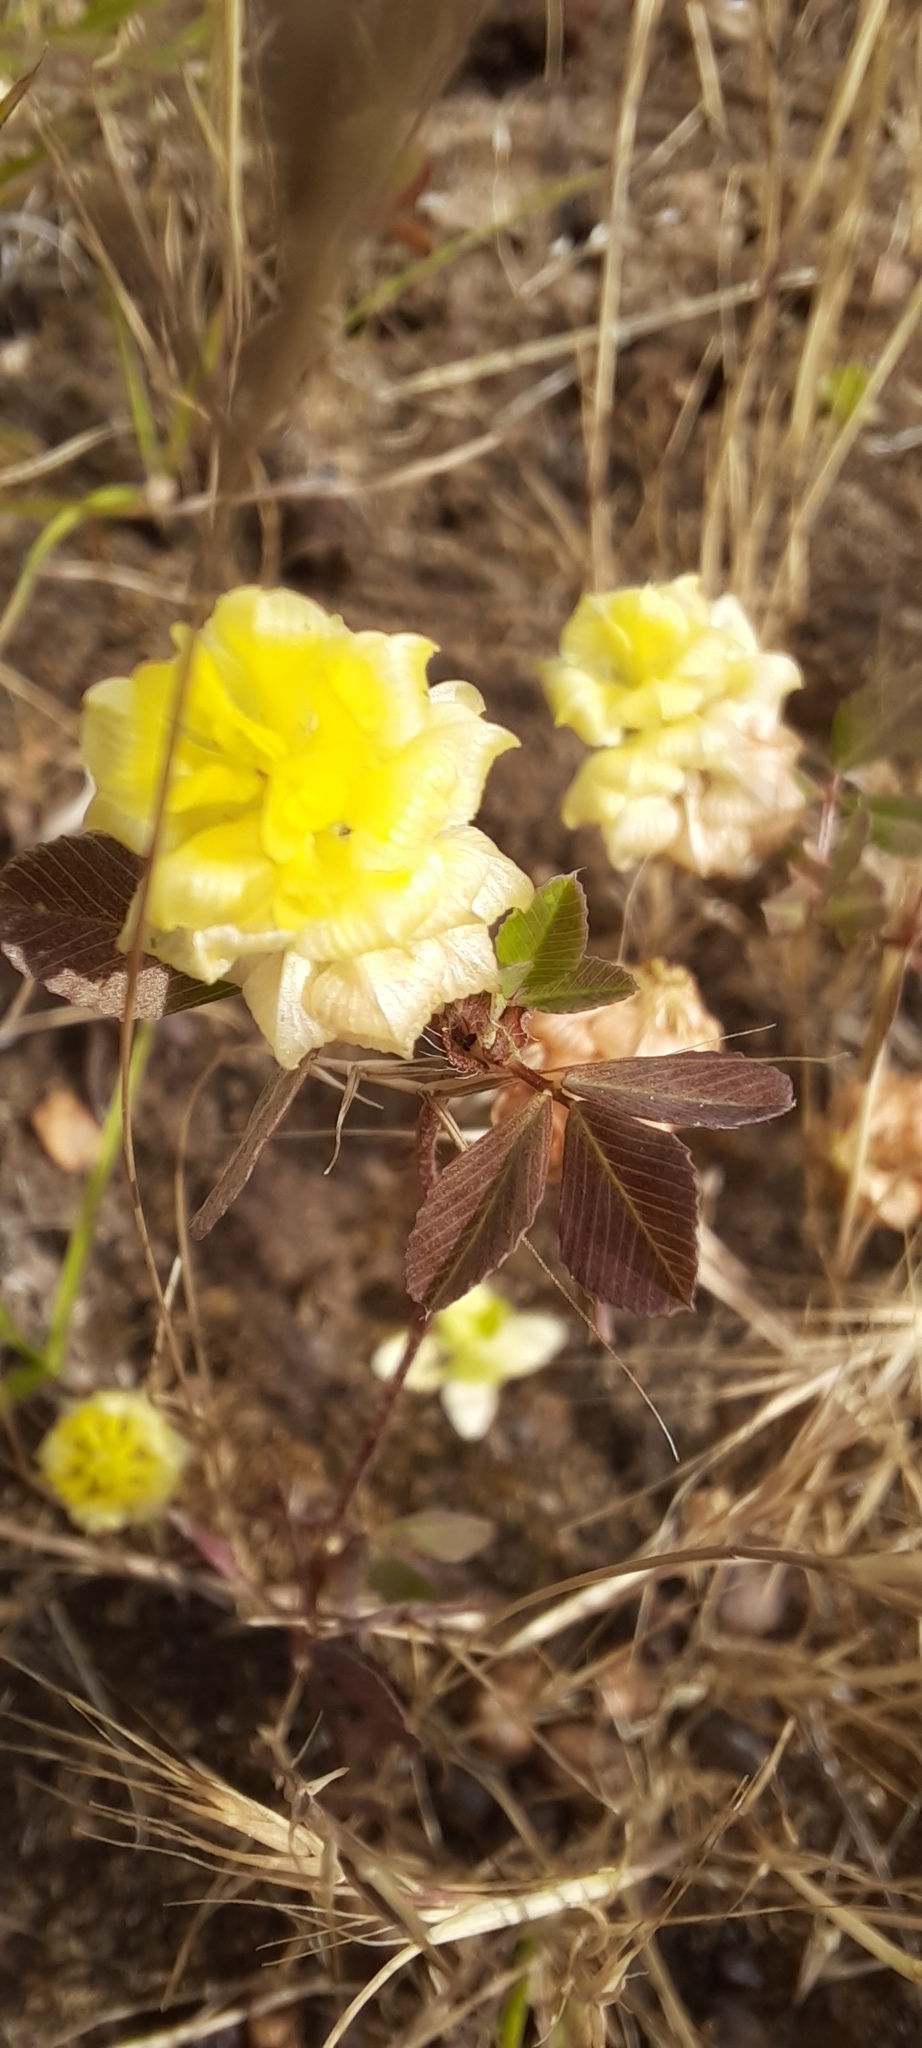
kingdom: Plantae
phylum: Tracheophyta
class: Magnoliopsida
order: Fabales
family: Fabaceae
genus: Trifolium
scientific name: Trifolium campestre
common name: Field clover
